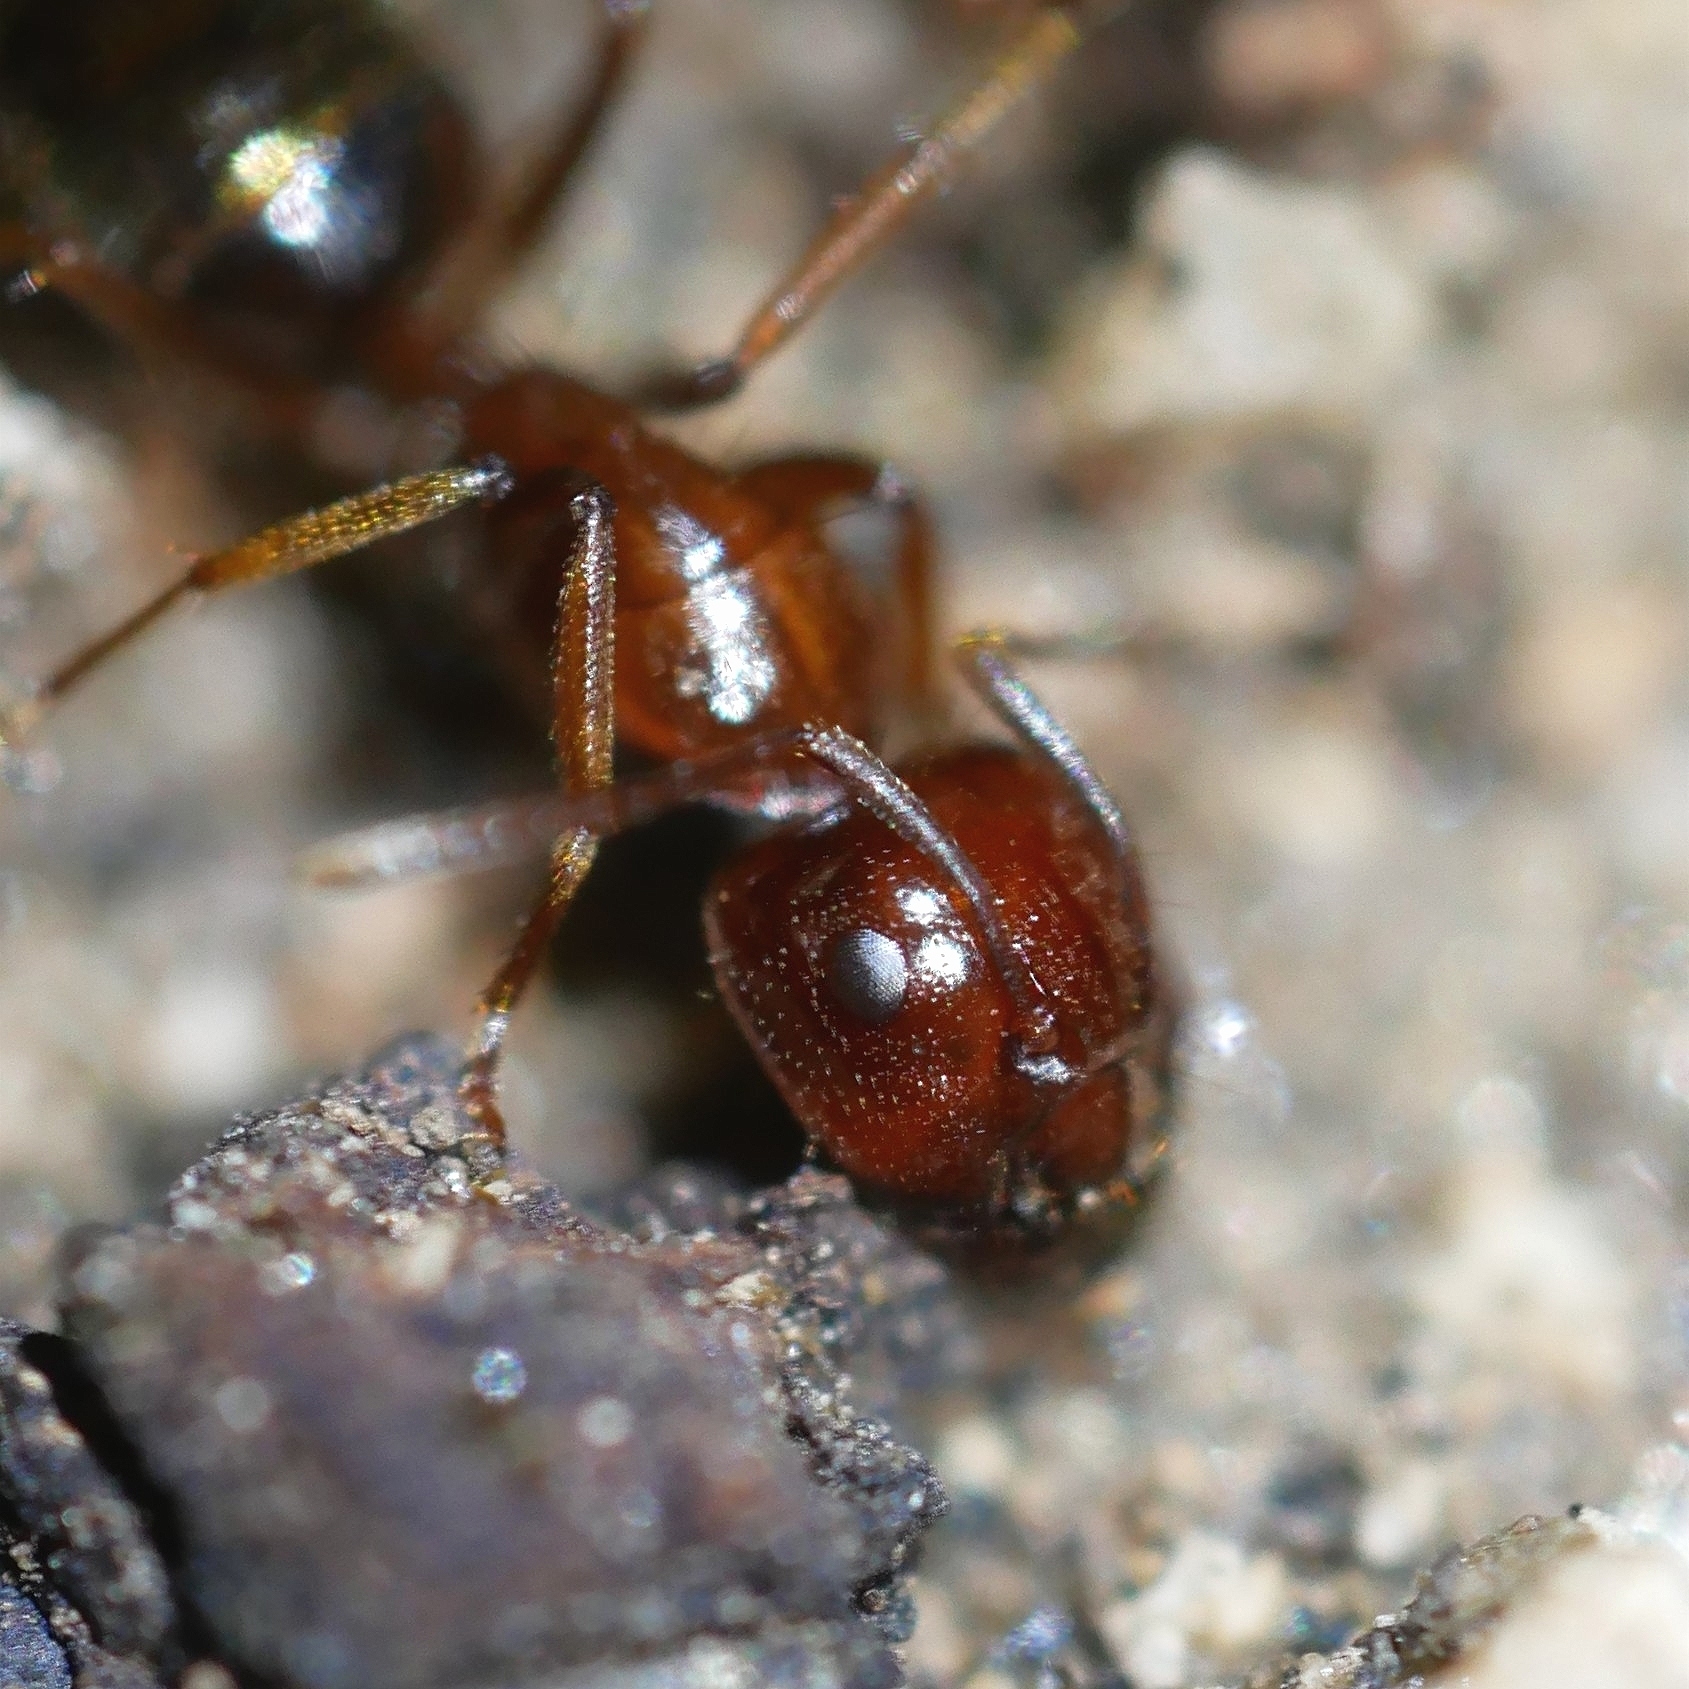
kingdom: Animalia
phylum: Arthropoda
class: Insecta
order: Hymenoptera
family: Formicidae
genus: Camponotus
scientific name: Camponotus
